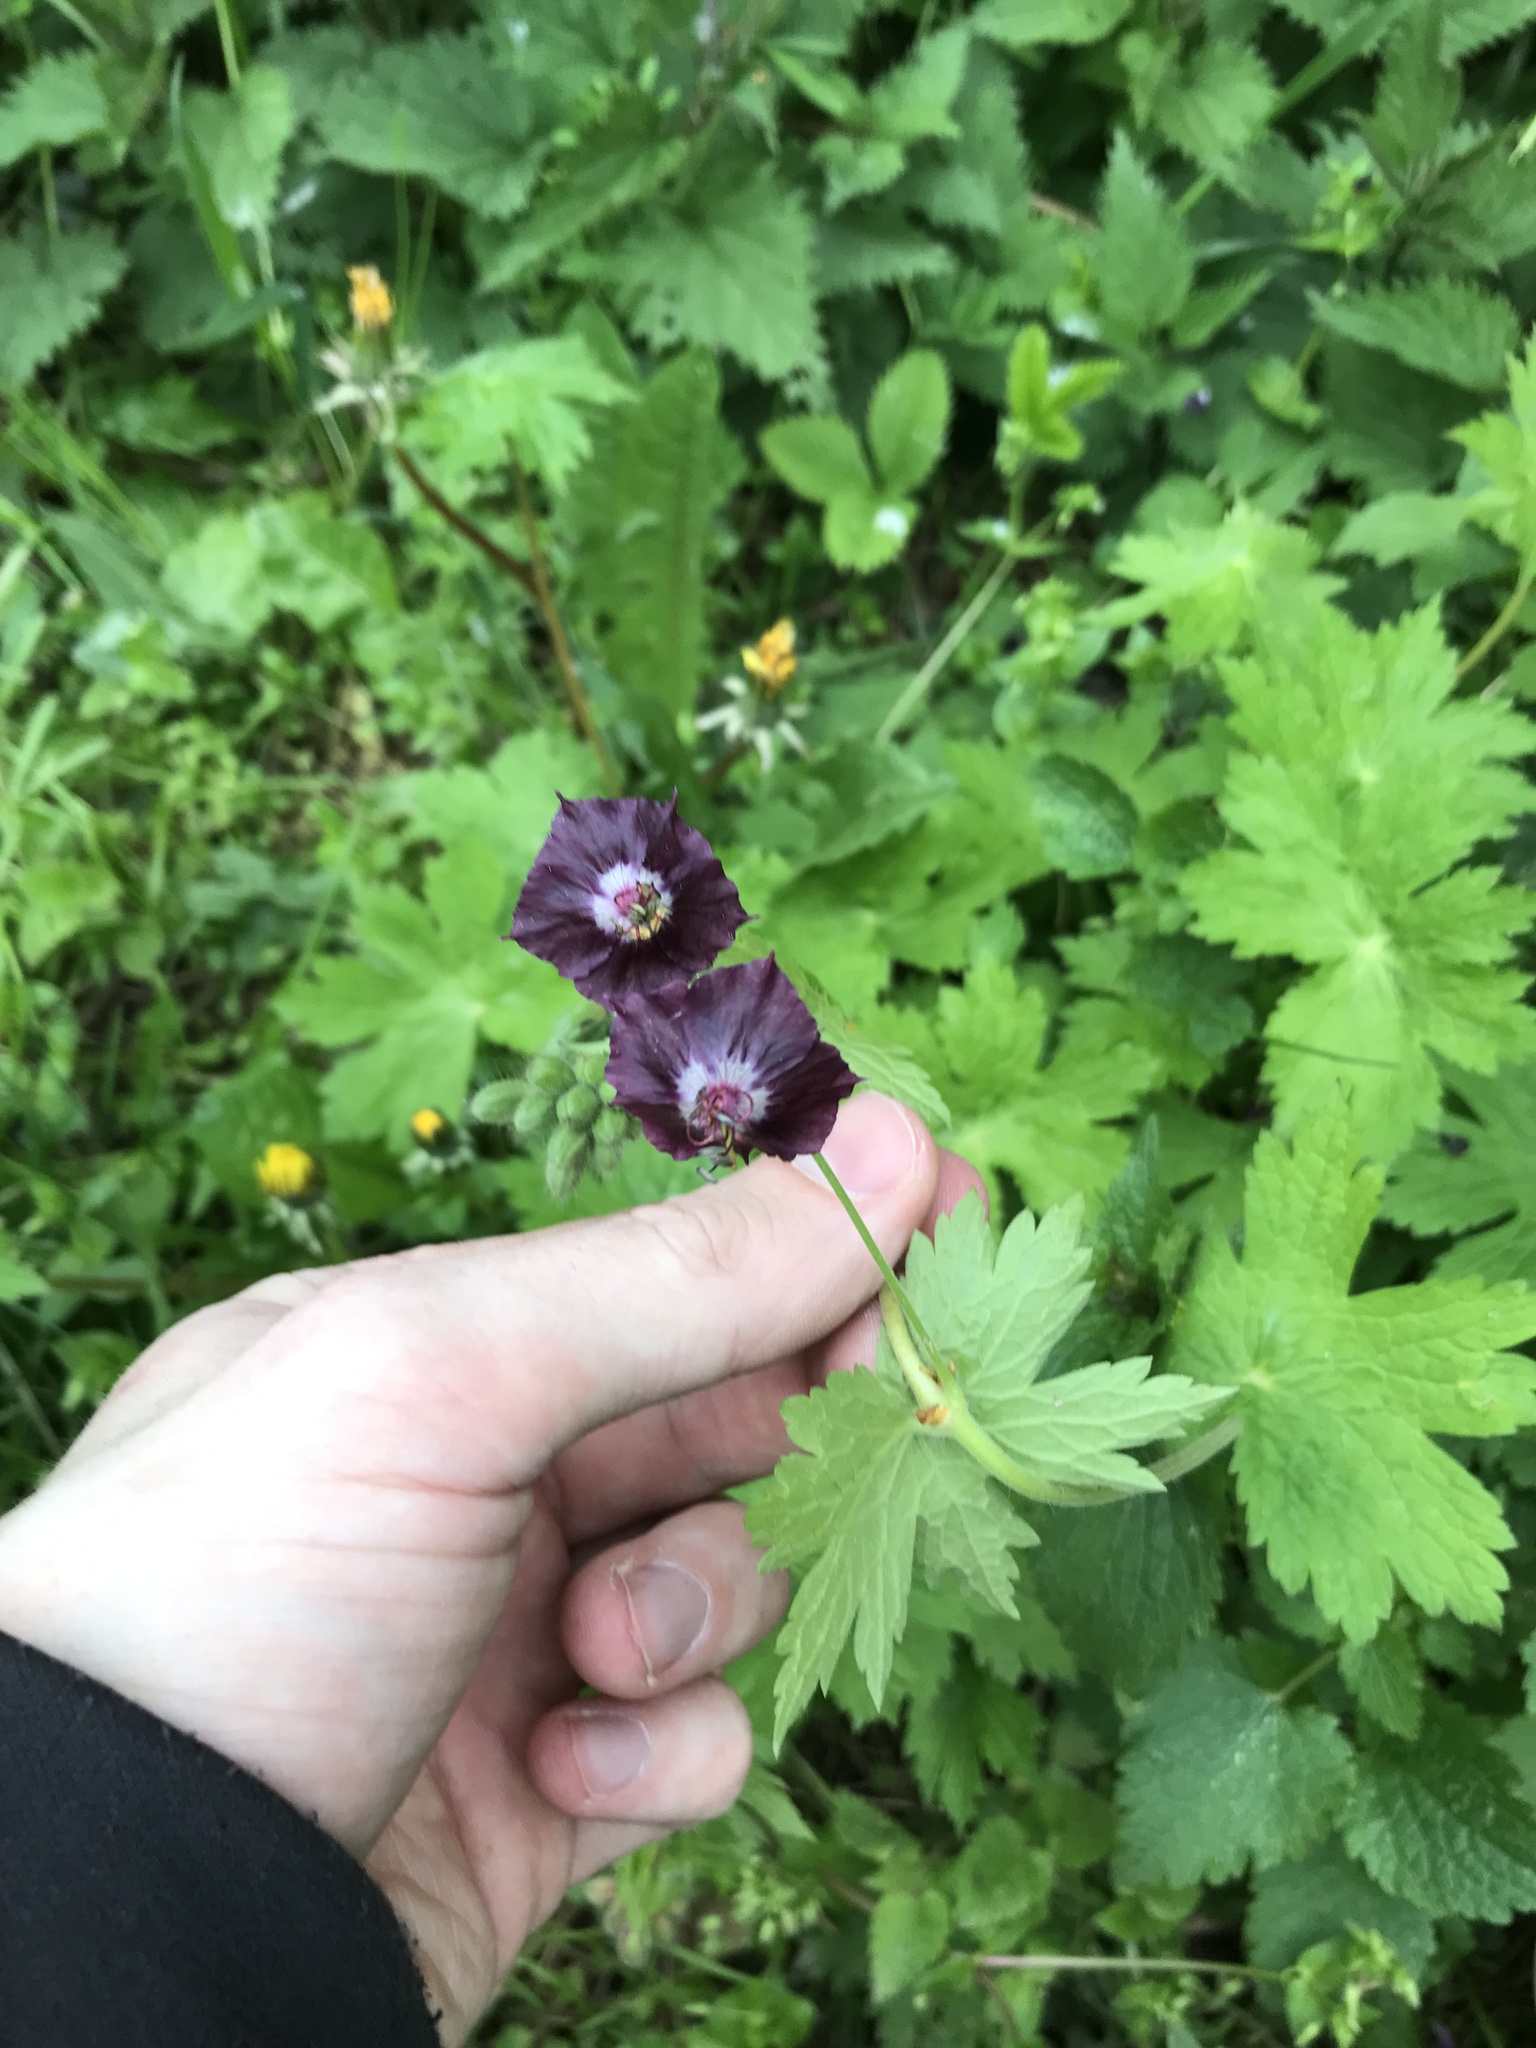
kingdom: Plantae
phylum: Tracheophyta
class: Magnoliopsida
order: Geraniales
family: Geraniaceae
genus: Geranium
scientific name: Geranium phaeum
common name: Dusky crane's-bill
